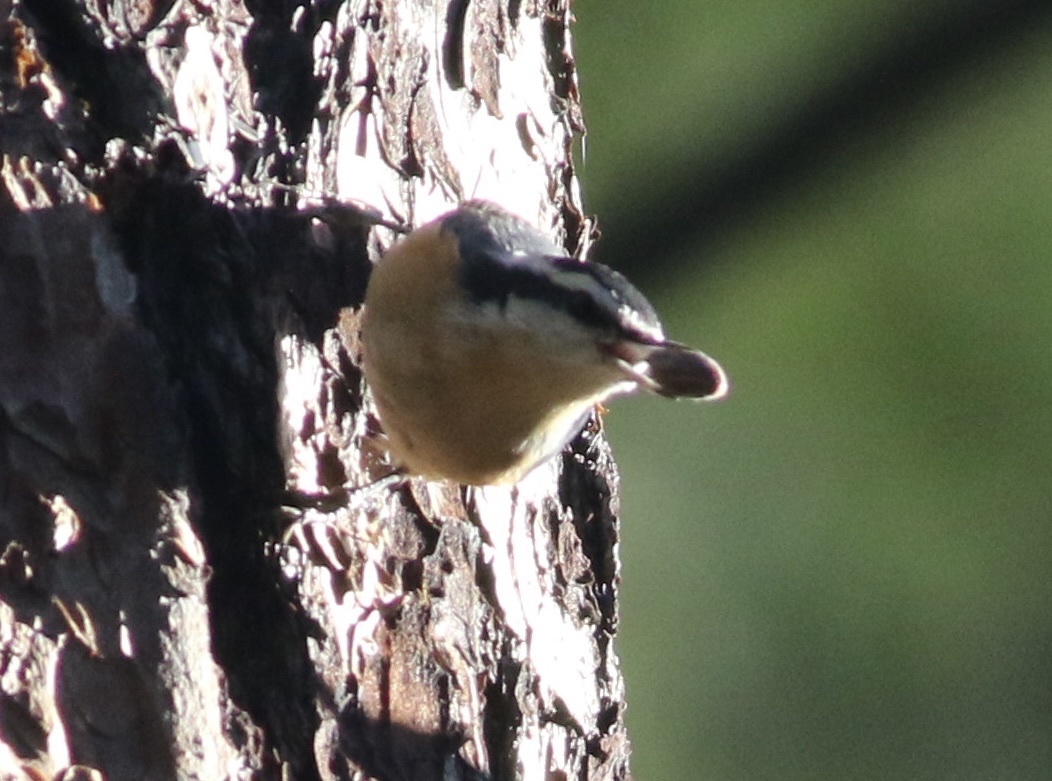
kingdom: Animalia
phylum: Chordata
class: Aves
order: Passeriformes
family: Sittidae
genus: Sitta
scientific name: Sitta canadensis
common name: Red-breasted nuthatch
